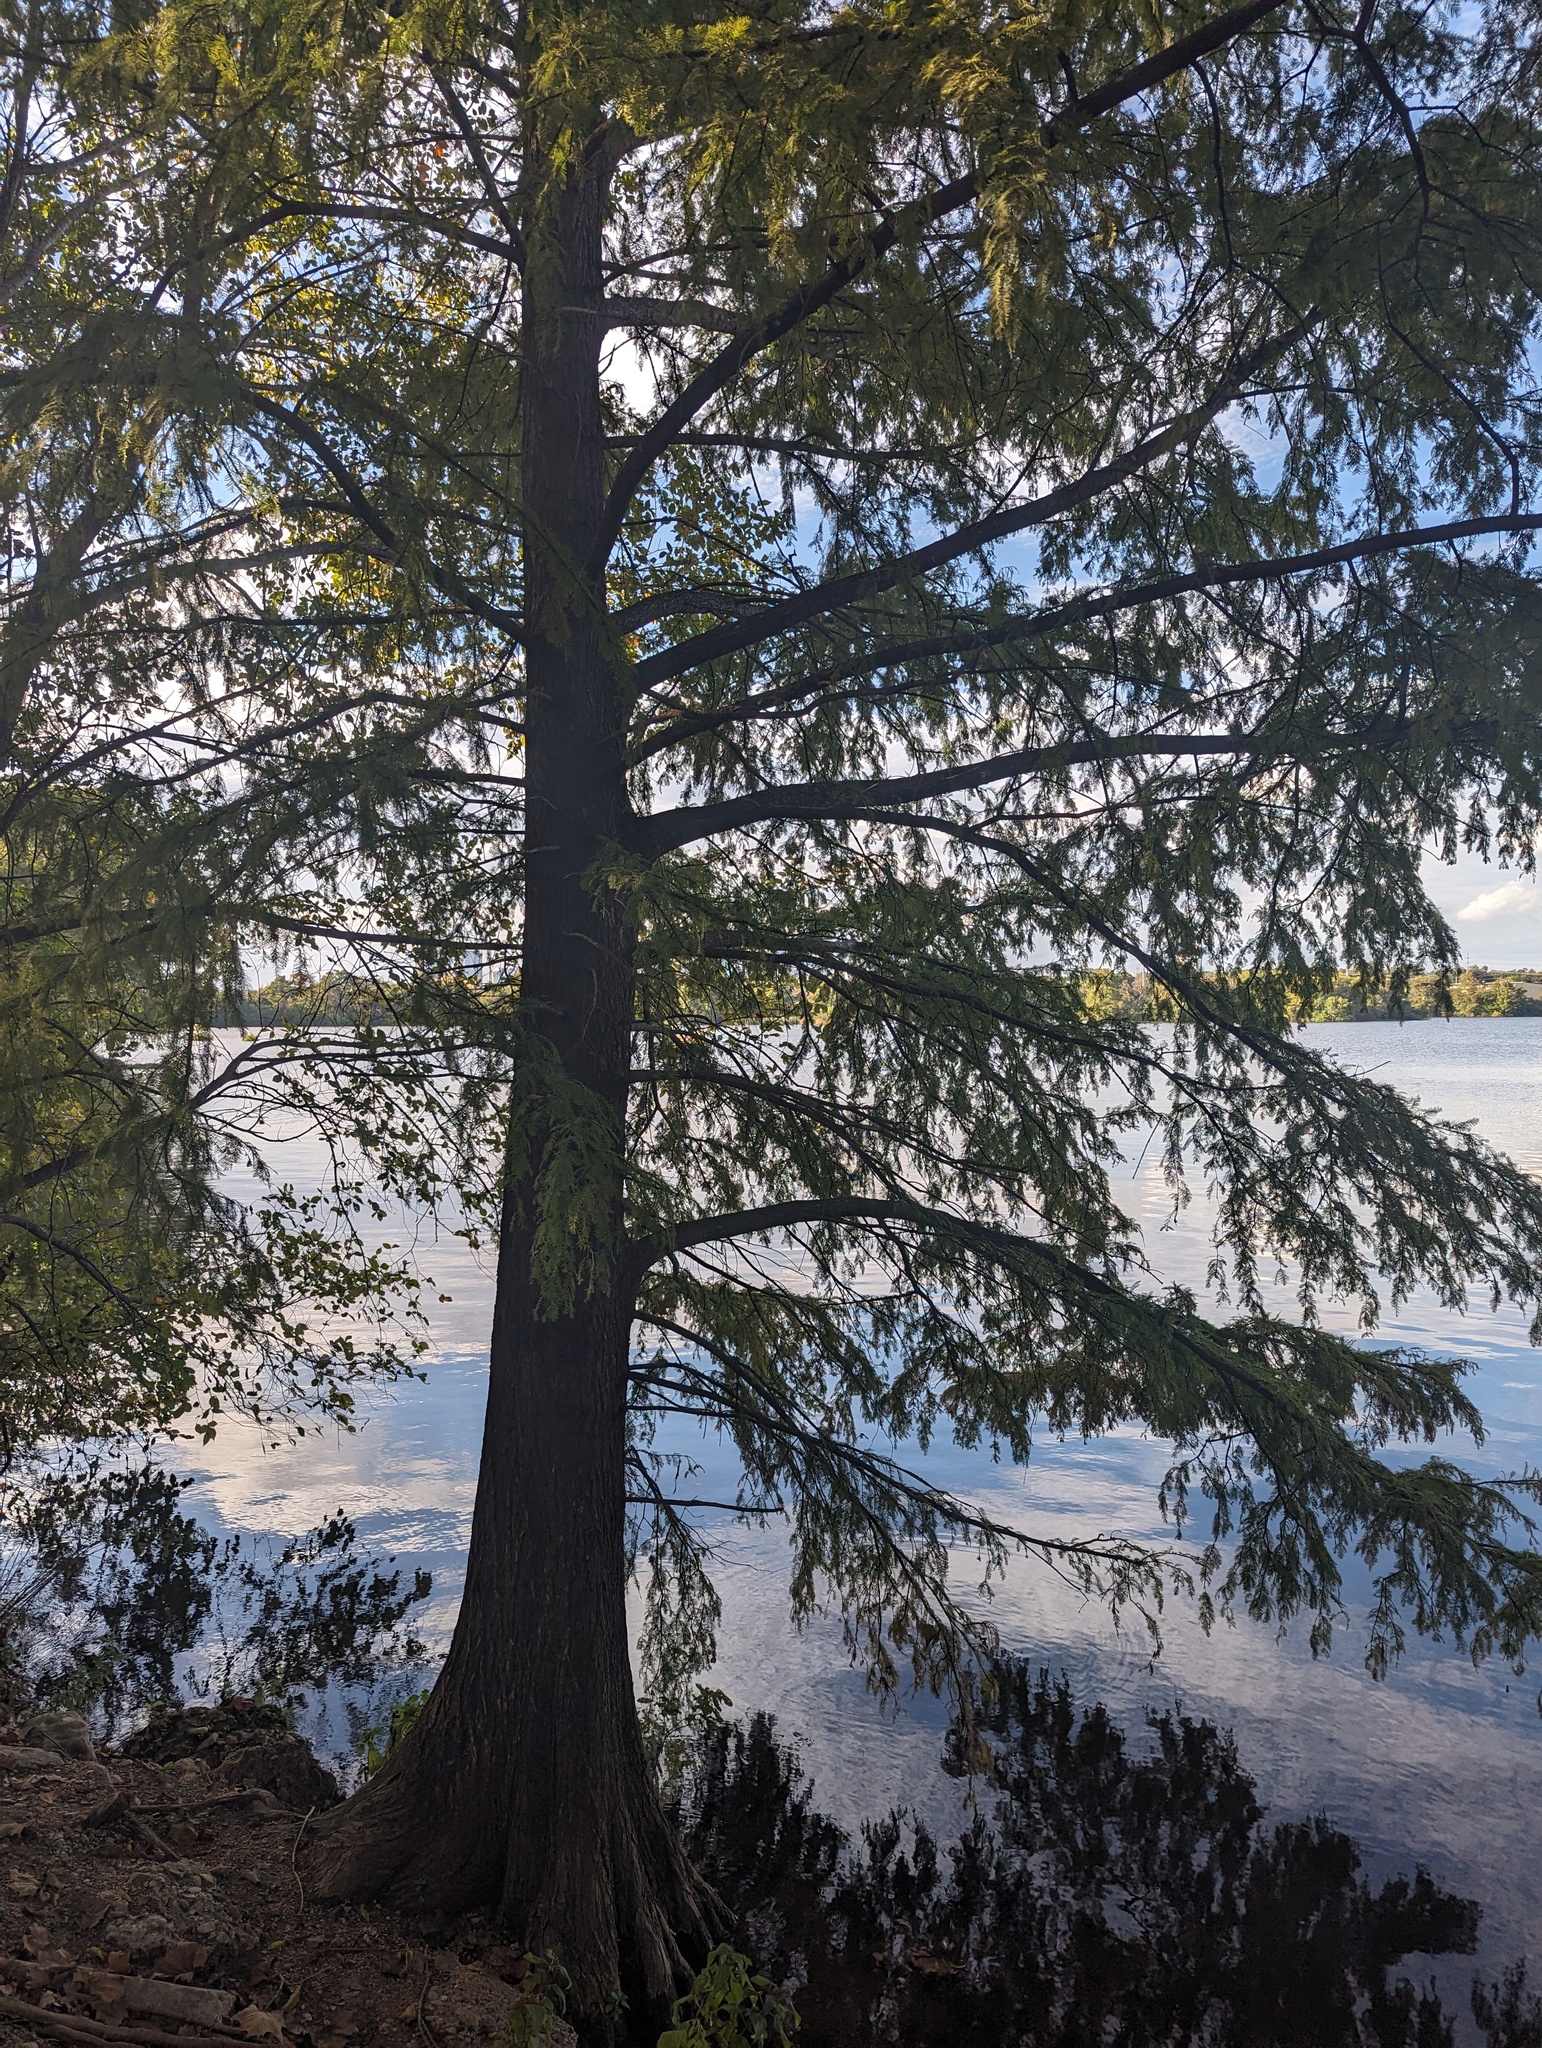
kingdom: Plantae
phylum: Tracheophyta
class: Pinopsida
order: Pinales
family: Cupressaceae
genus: Taxodium
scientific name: Taxodium distichum
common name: Bald cypress
